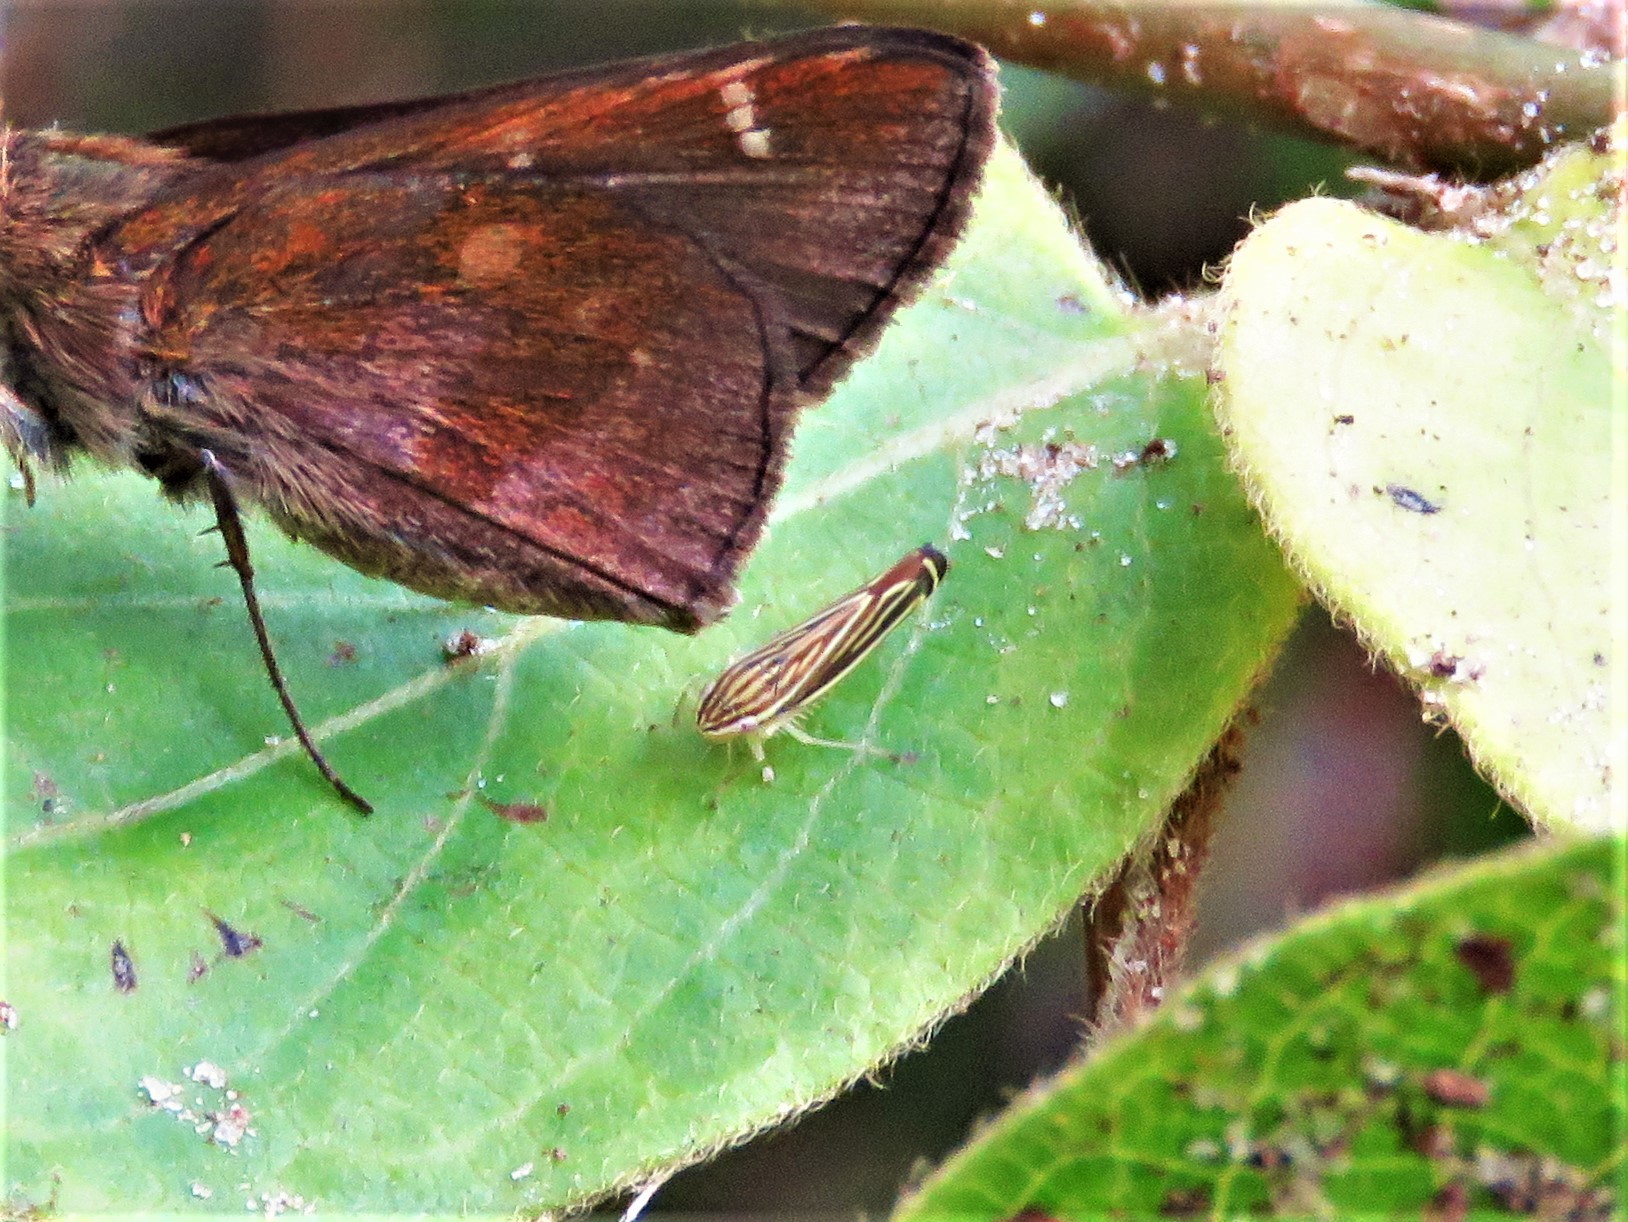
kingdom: Animalia
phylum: Arthropoda
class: Insecta
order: Hemiptera
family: Cicadellidae
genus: Sibovia
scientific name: Sibovia occatoria
